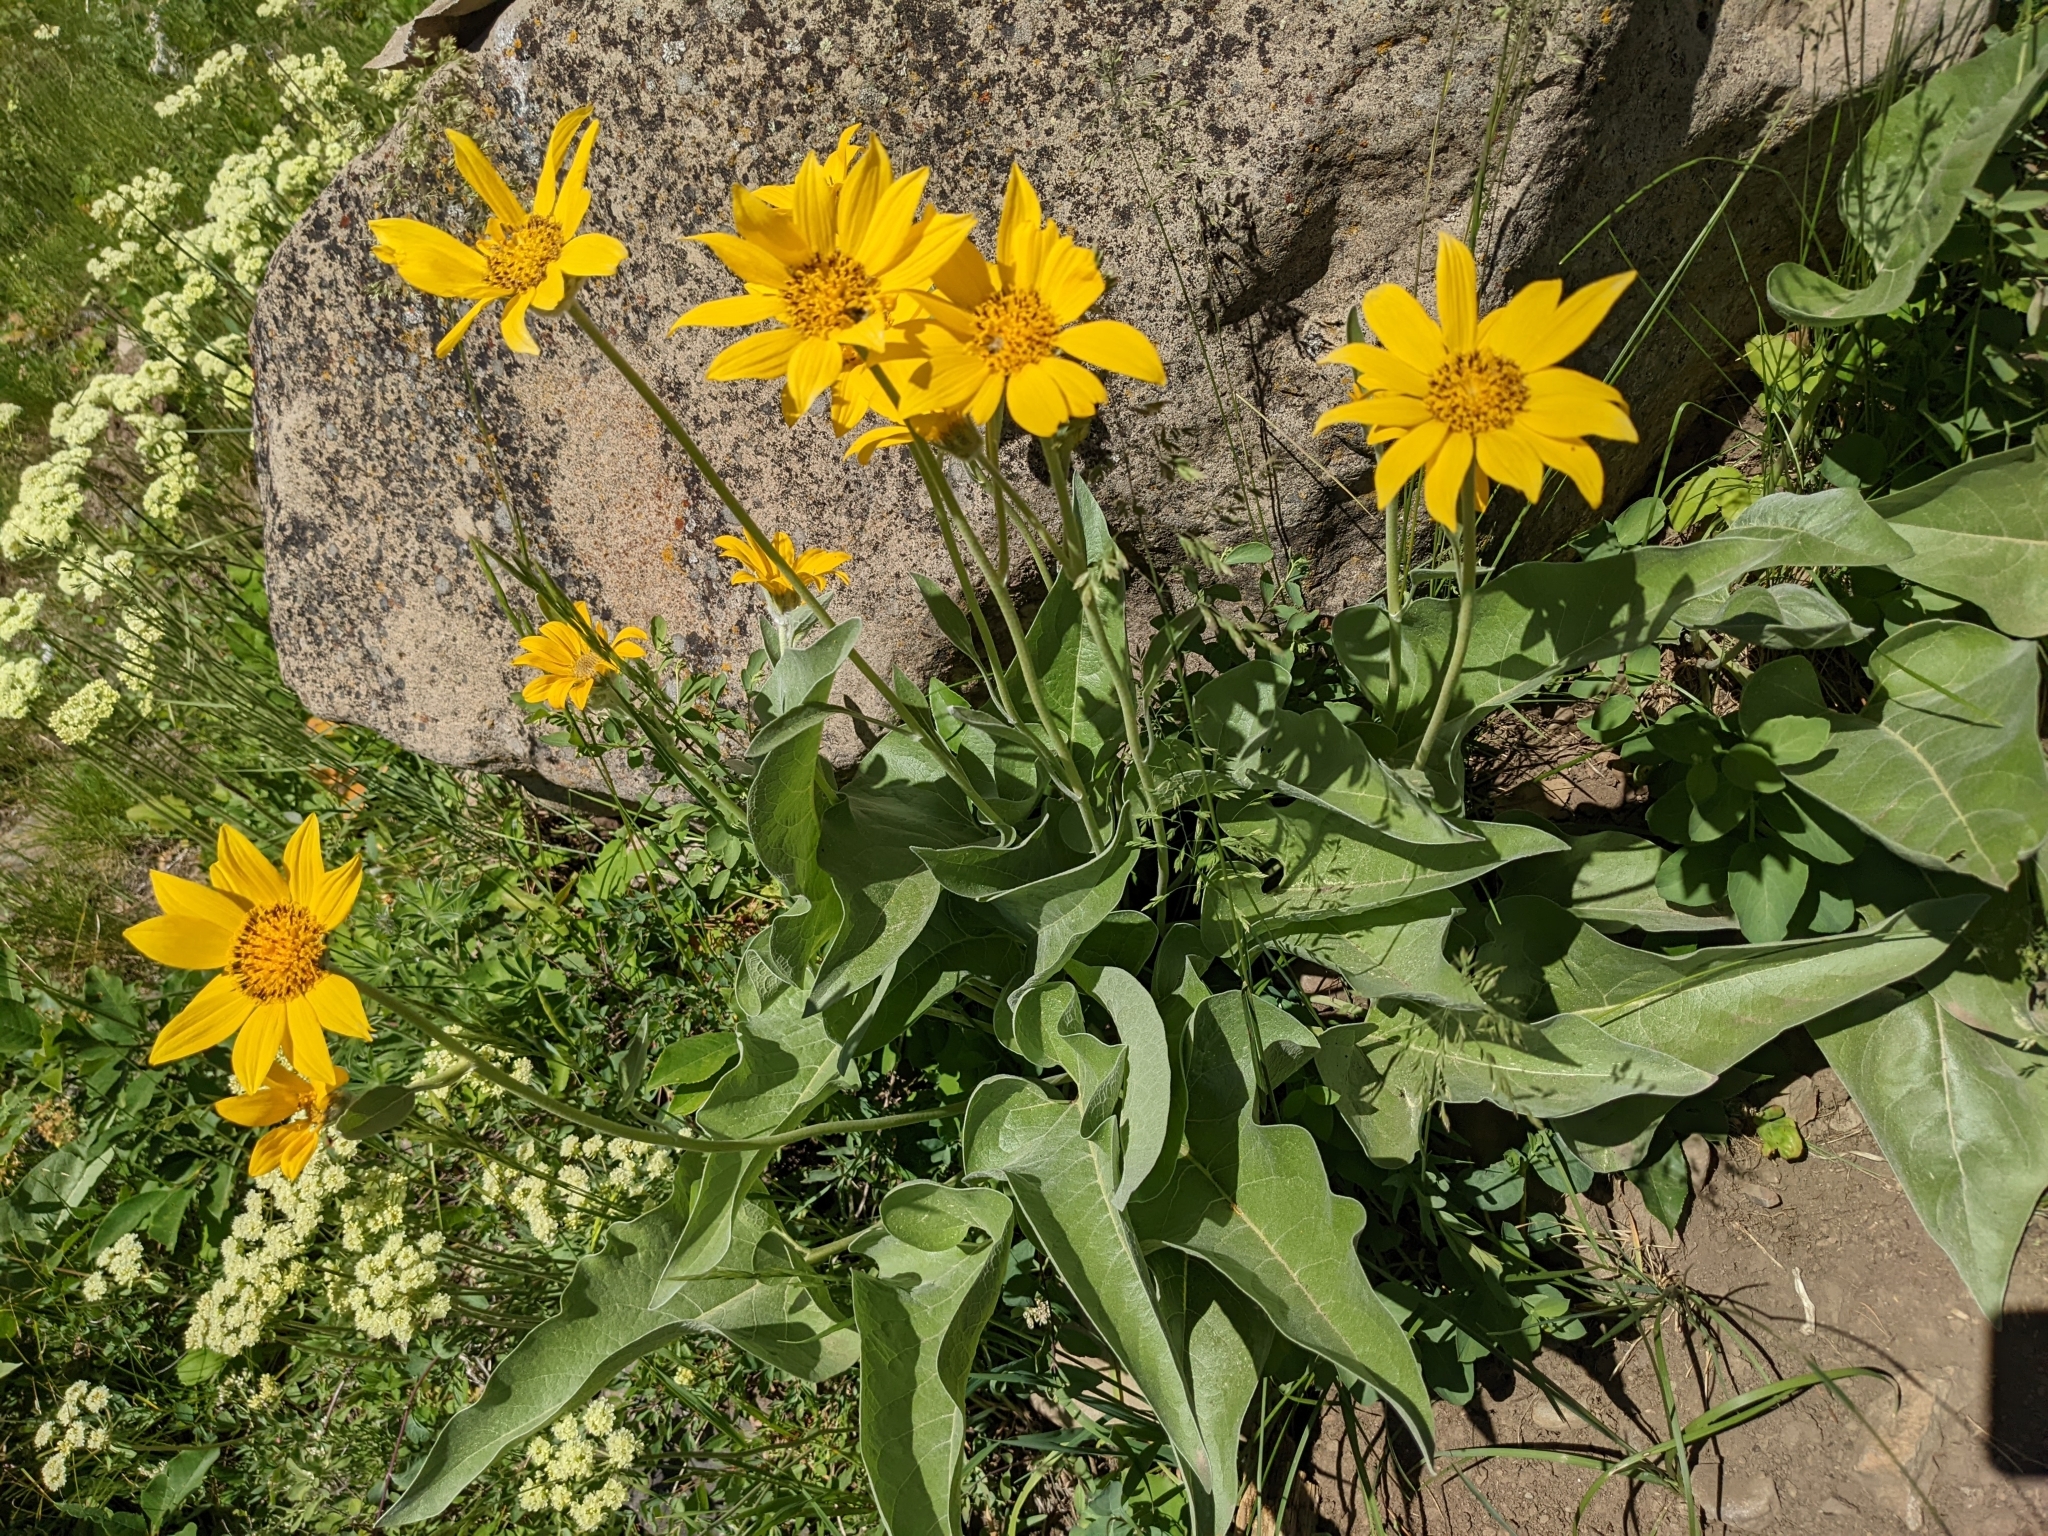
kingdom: Plantae
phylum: Tracheophyta
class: Magnoliopsida
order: Asterales
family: Asteraceae
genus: Wyethia
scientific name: Wyethia sagittata
